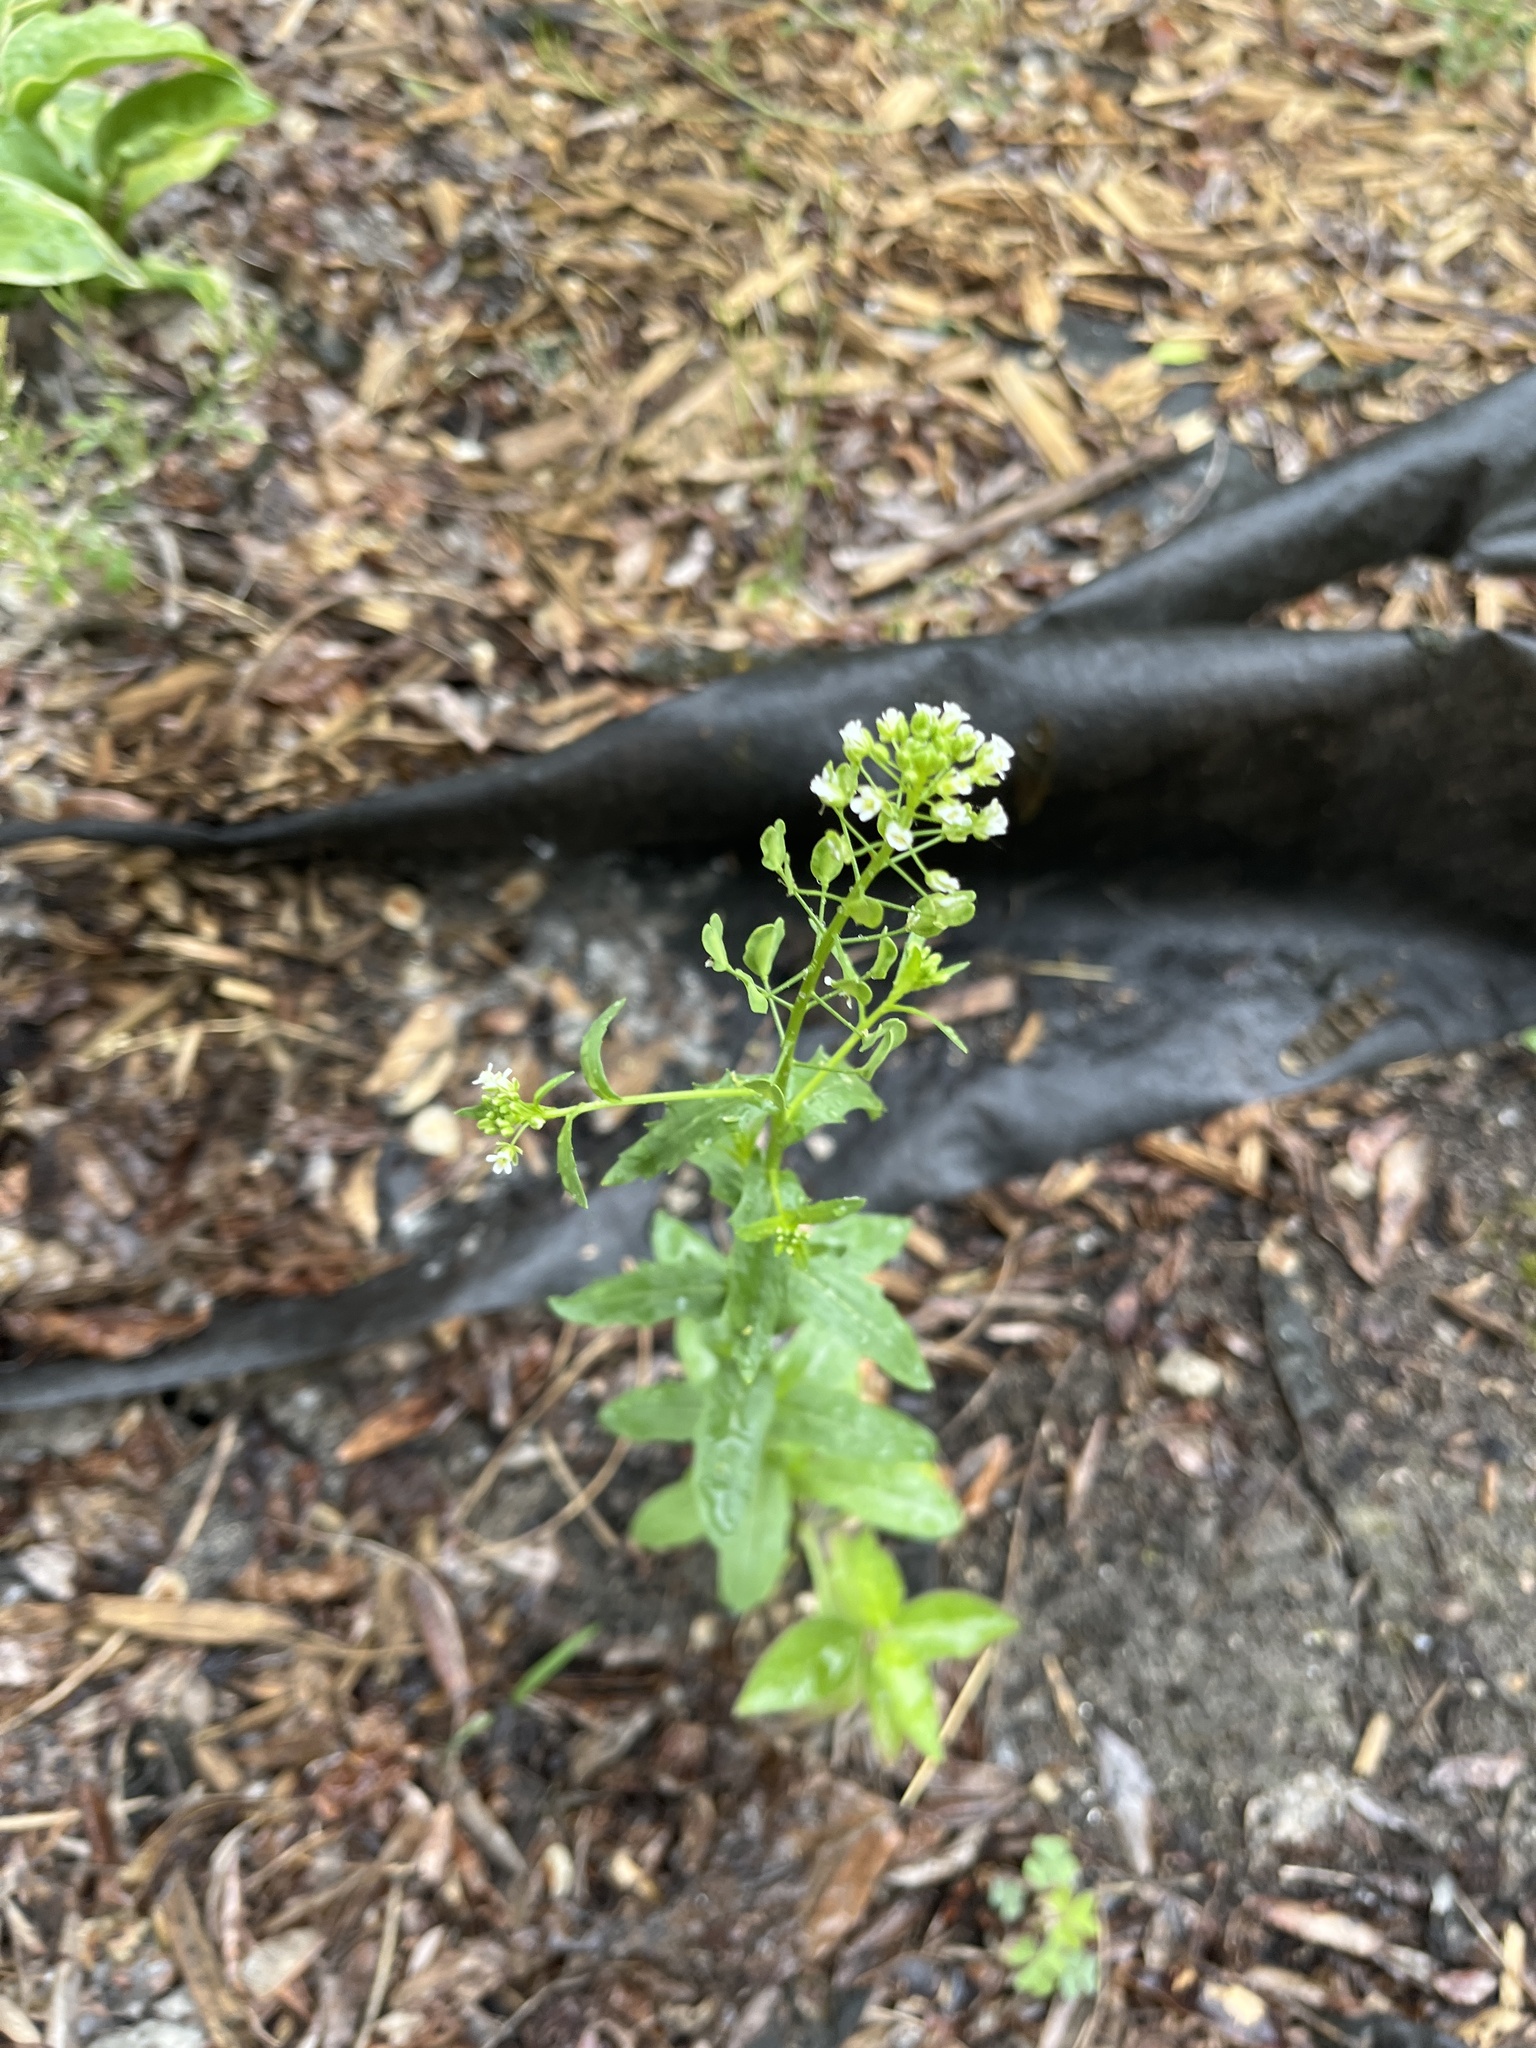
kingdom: Plantae
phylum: Tracheophyta
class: Magnoliopsida
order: Brassicales
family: Brassicaceae
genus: Thlaspi
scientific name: Thlaspi arvense
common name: Field pennycress
